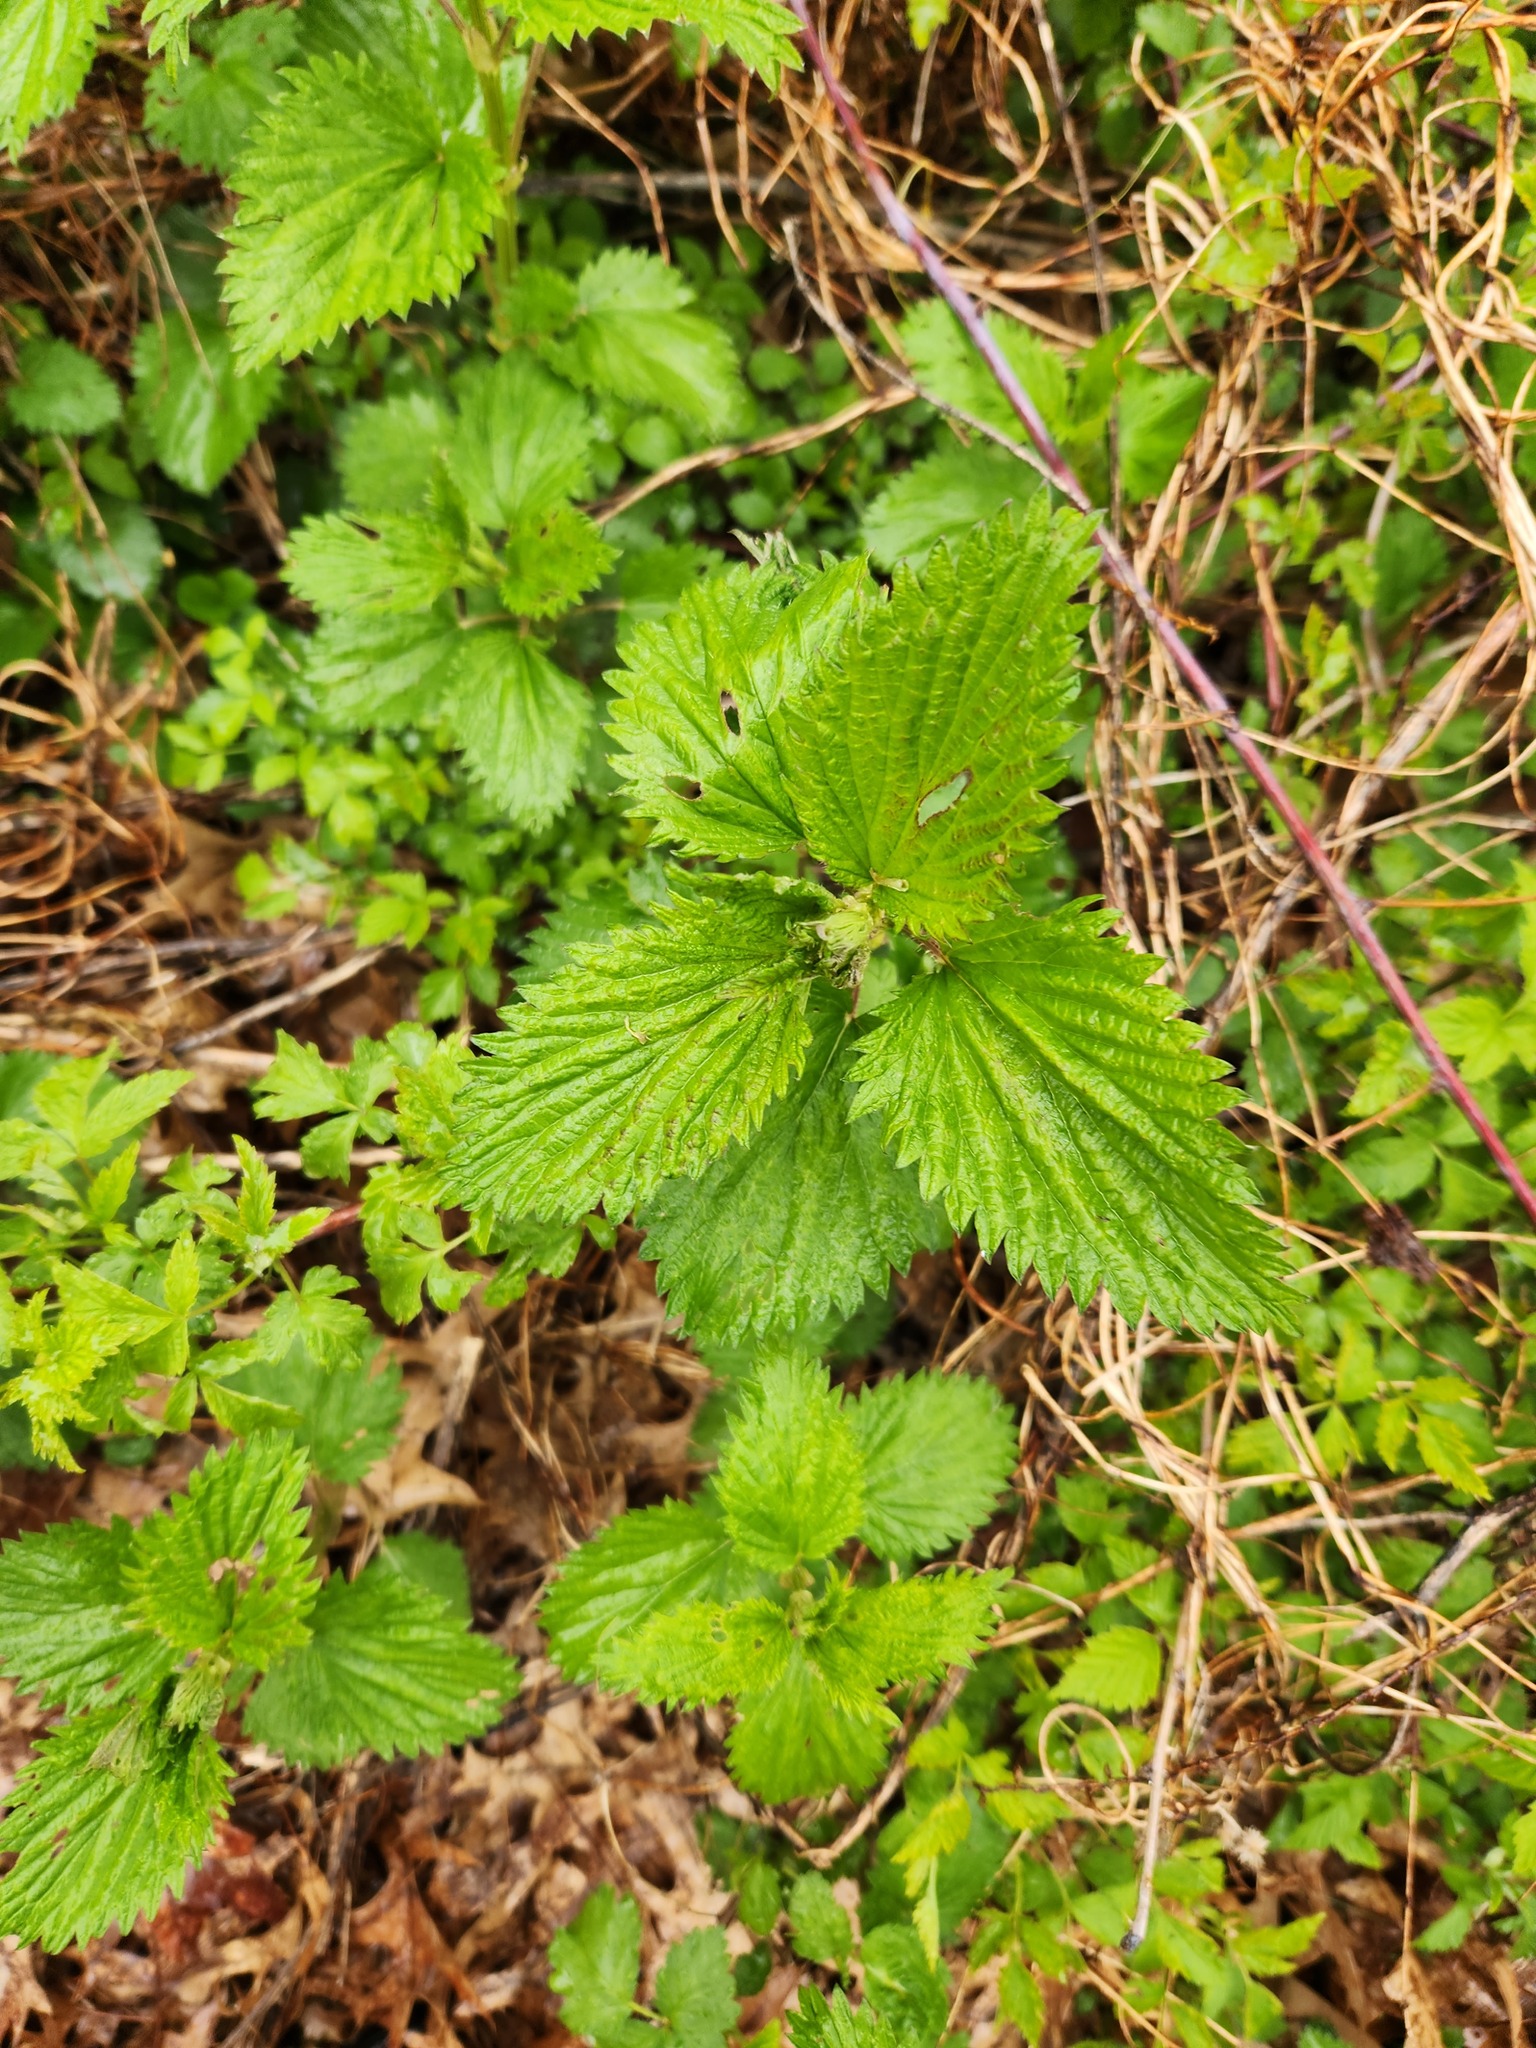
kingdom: Plantae
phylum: Tracheophyta
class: Magnoliopsida
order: Rosales
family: Urticaceae
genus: Urtica
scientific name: Urtica dioica
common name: Common nettle
